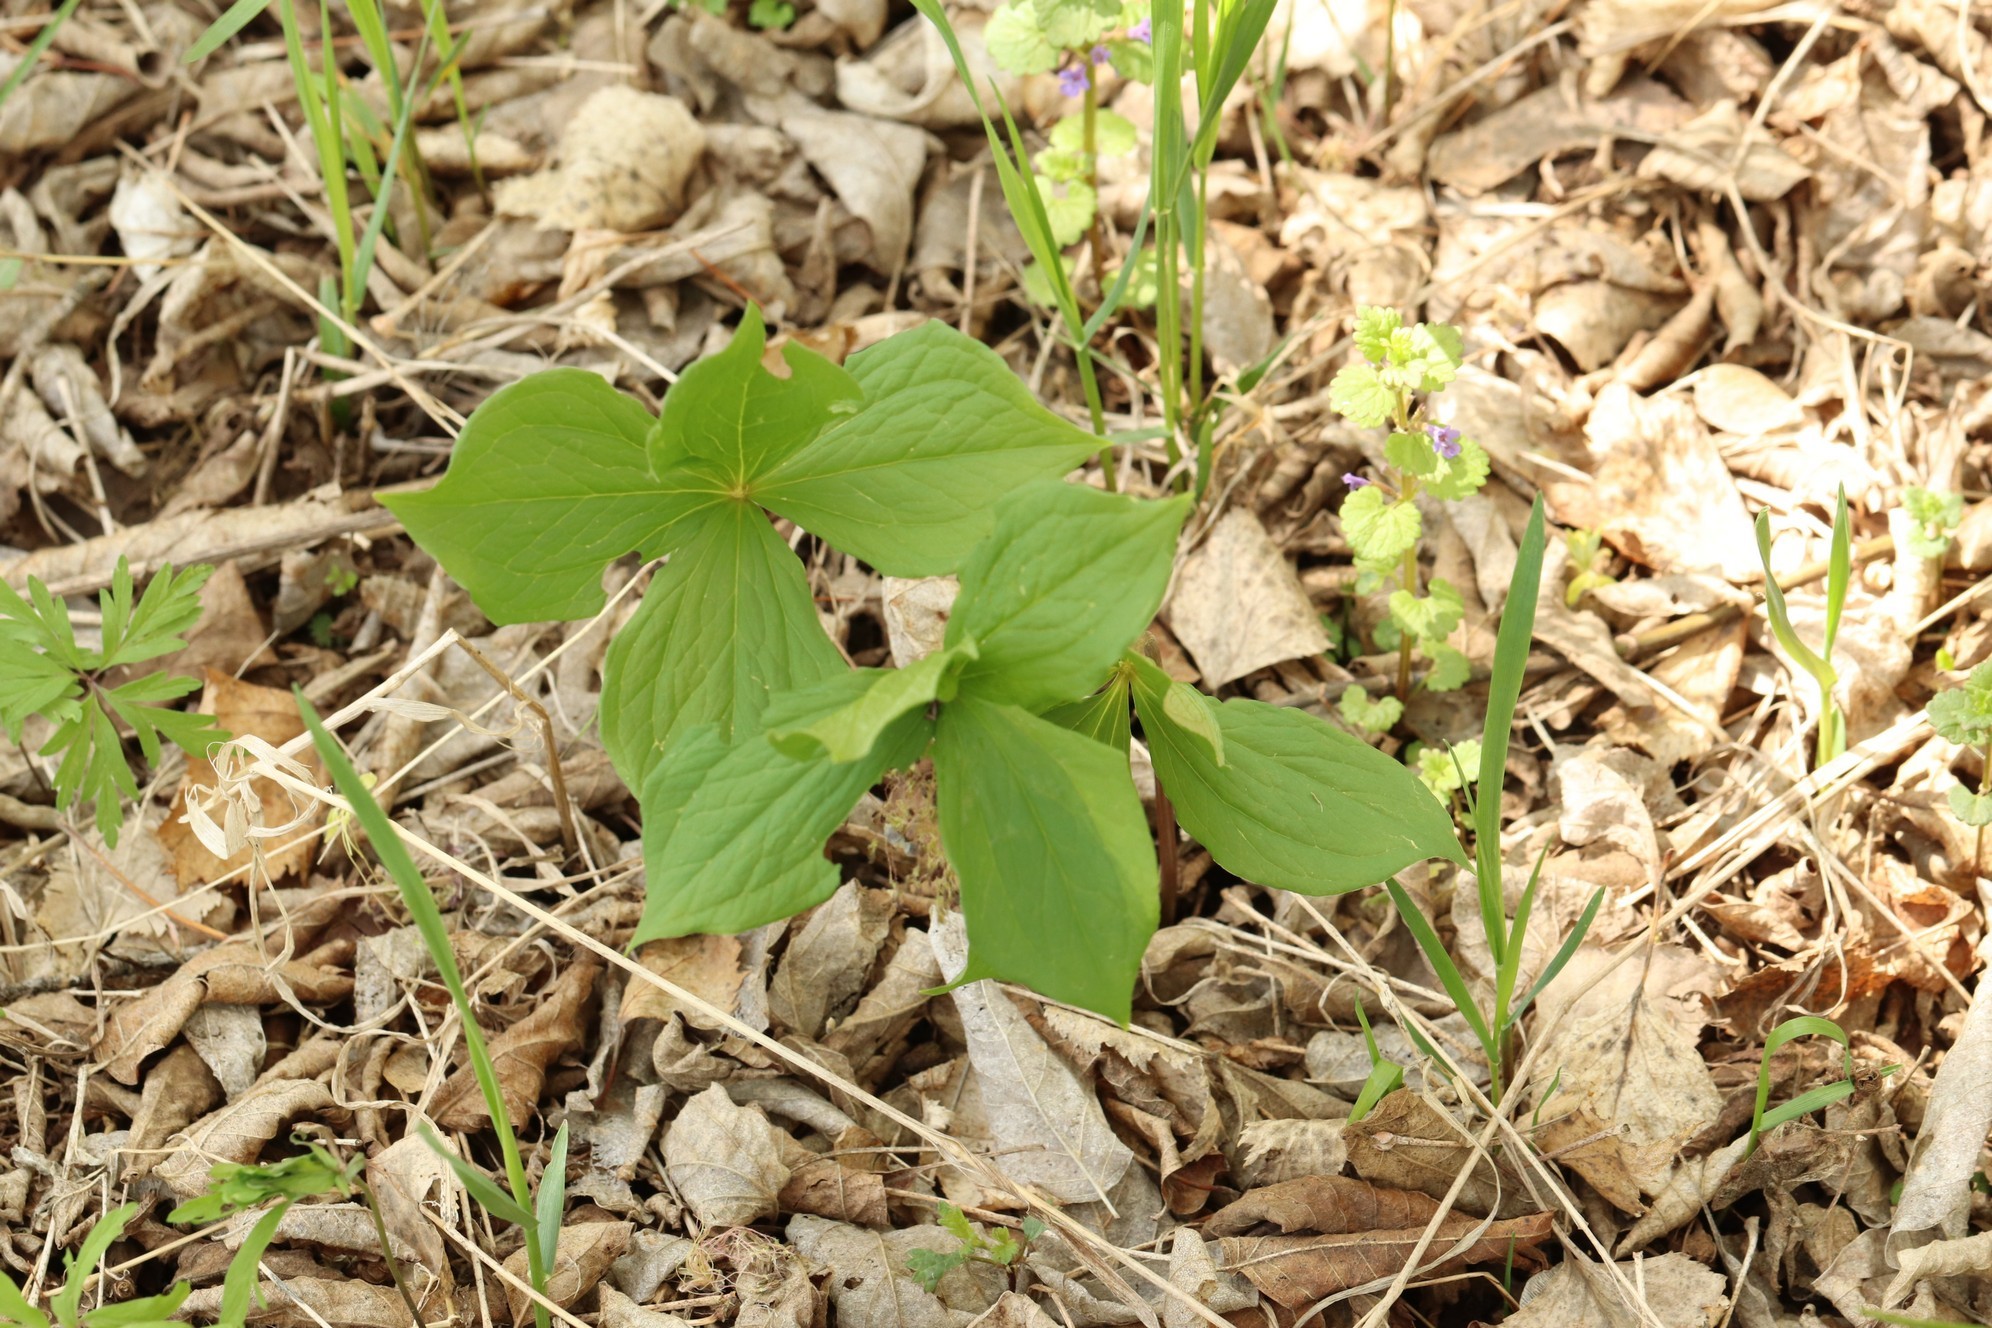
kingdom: Plantae
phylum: Tracheophyta
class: Liliopsida
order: Liliales
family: Melanthiaceae
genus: Paris
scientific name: Paris quadrifolia
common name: Herb-paris
